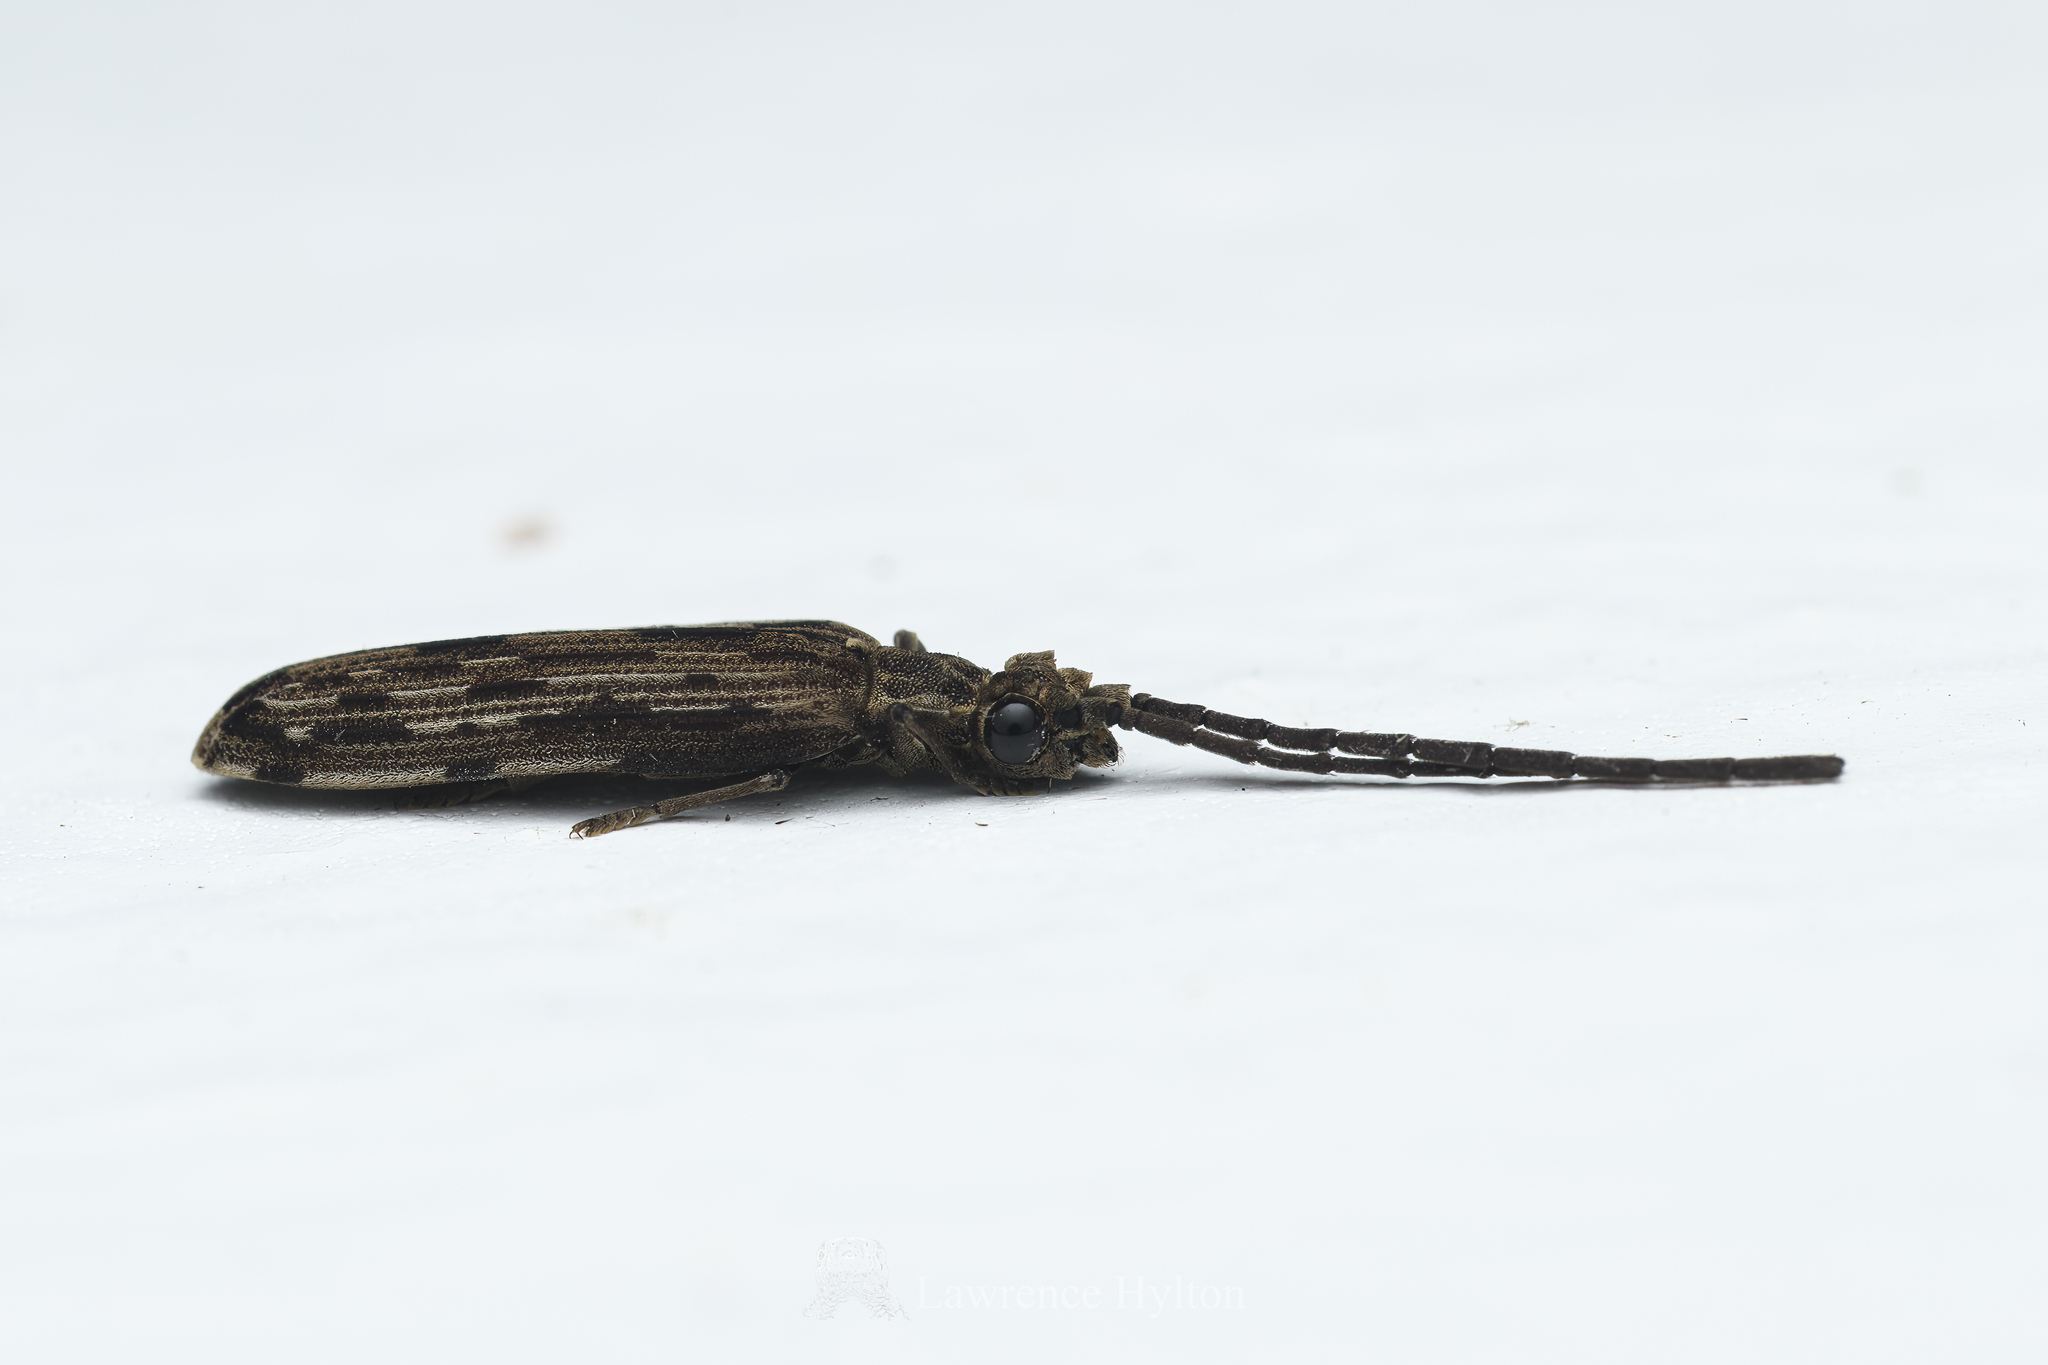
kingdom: Animalia
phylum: Arthropoda
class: Insecta
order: Coleoptera
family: Cupedidae
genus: Tenomerga
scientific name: Tenomerga
